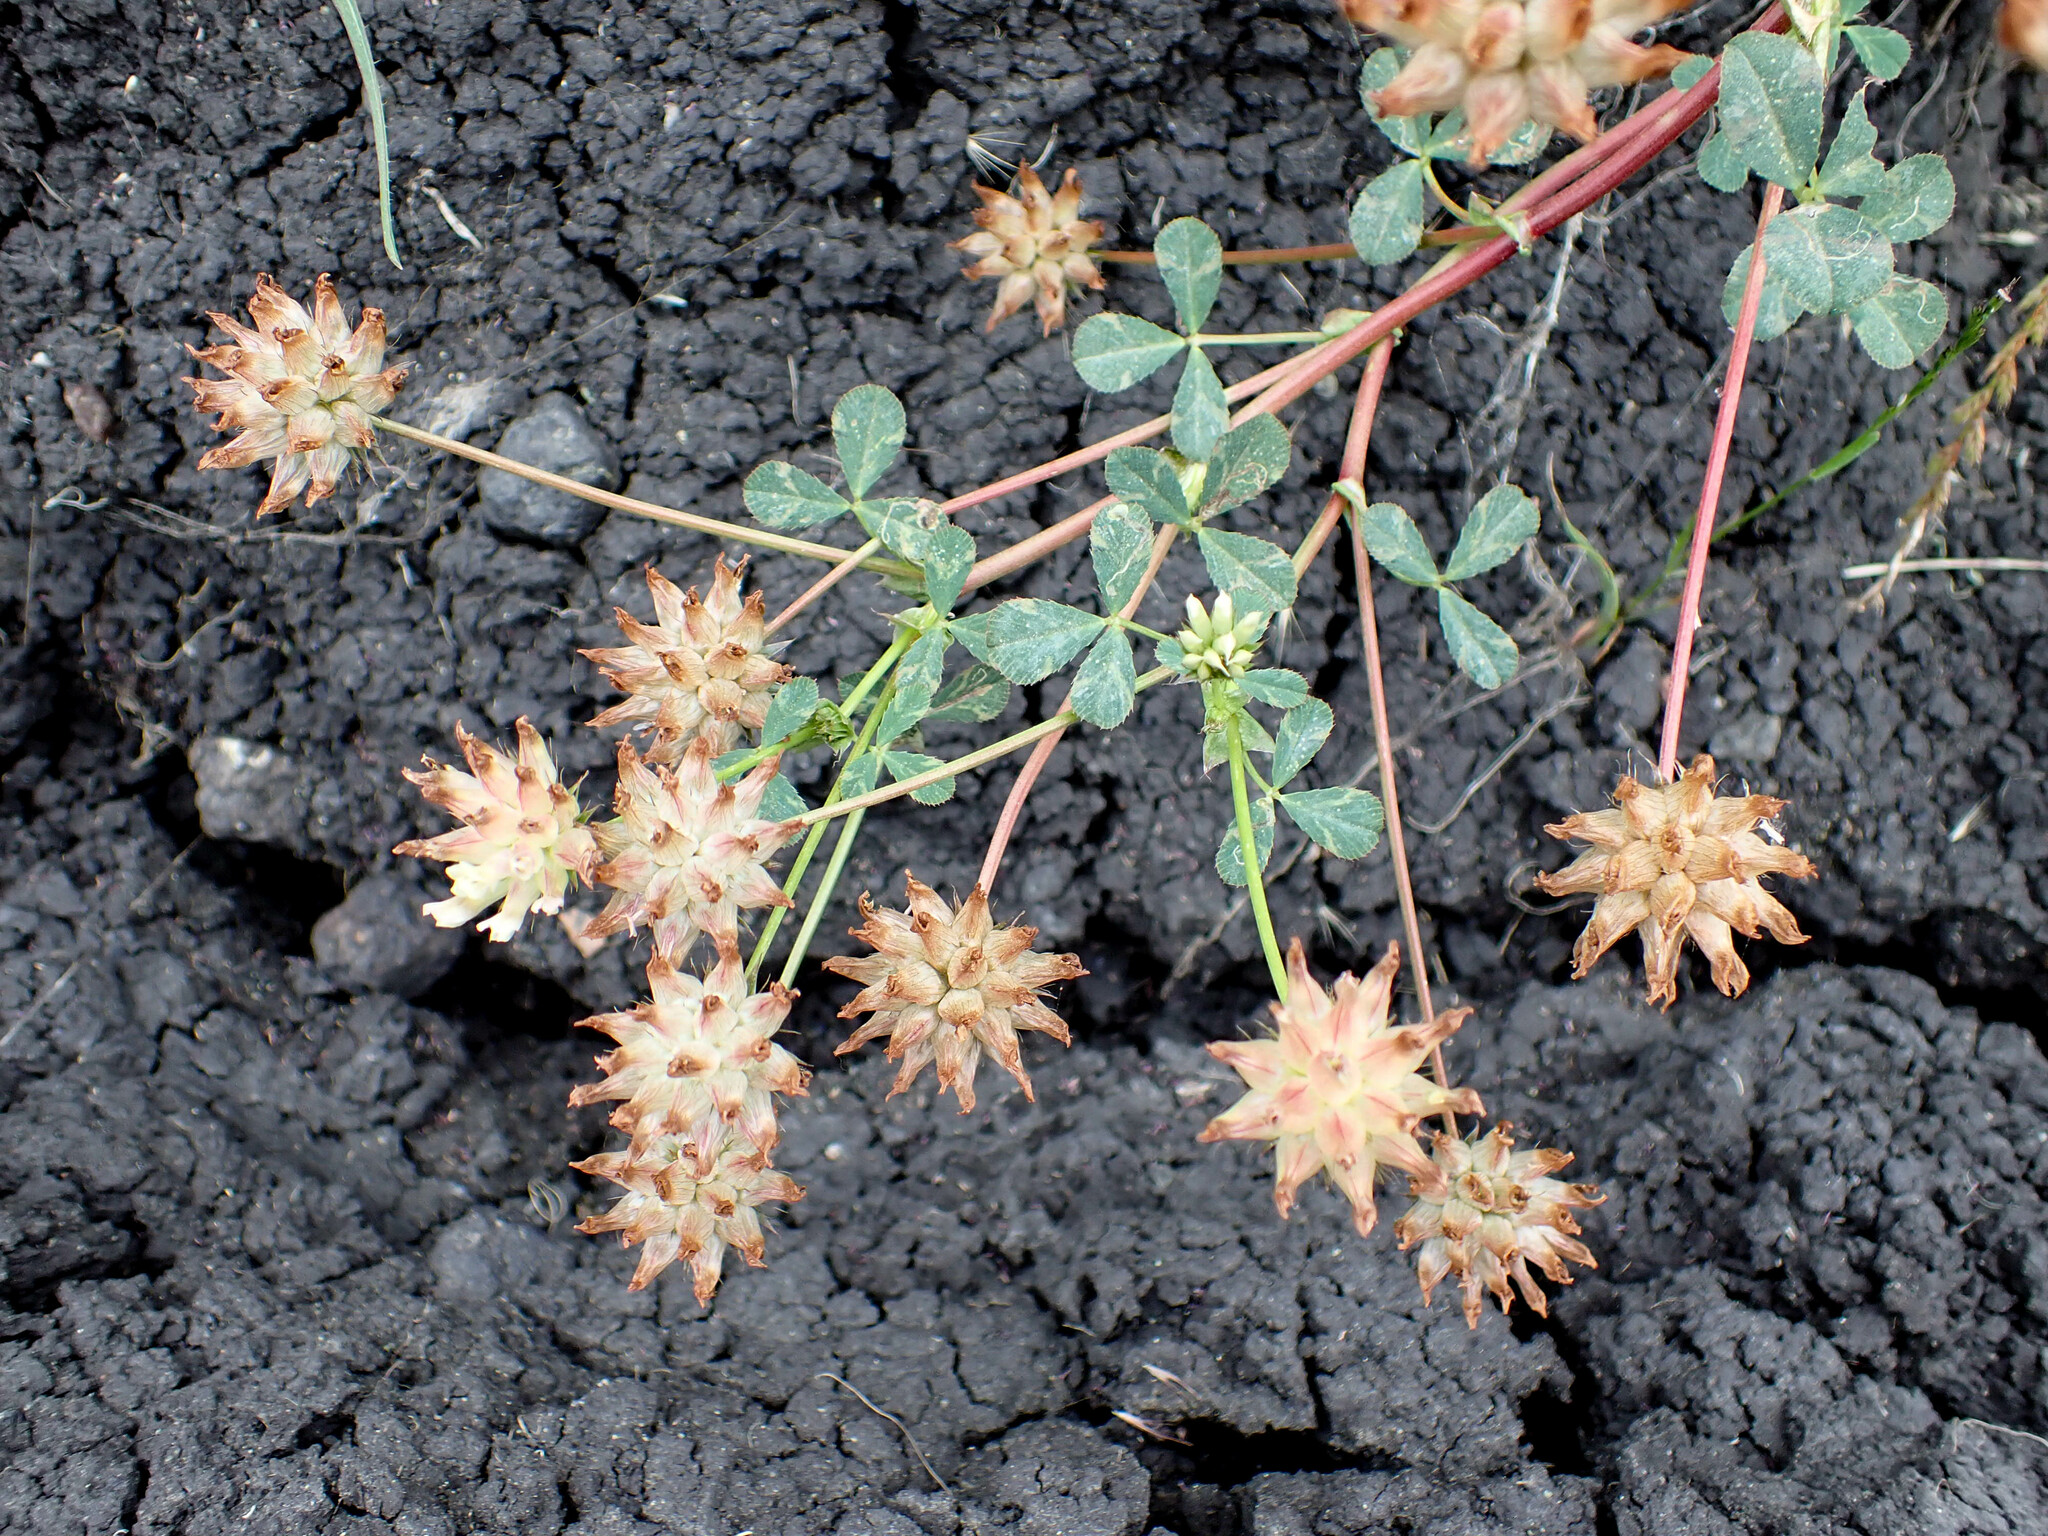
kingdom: Plantae
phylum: Tracheophyta
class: Magnoliopsida
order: Fabales
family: Fabaceae
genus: Trifolium
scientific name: Trifolium fucatum
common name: Puff clover
